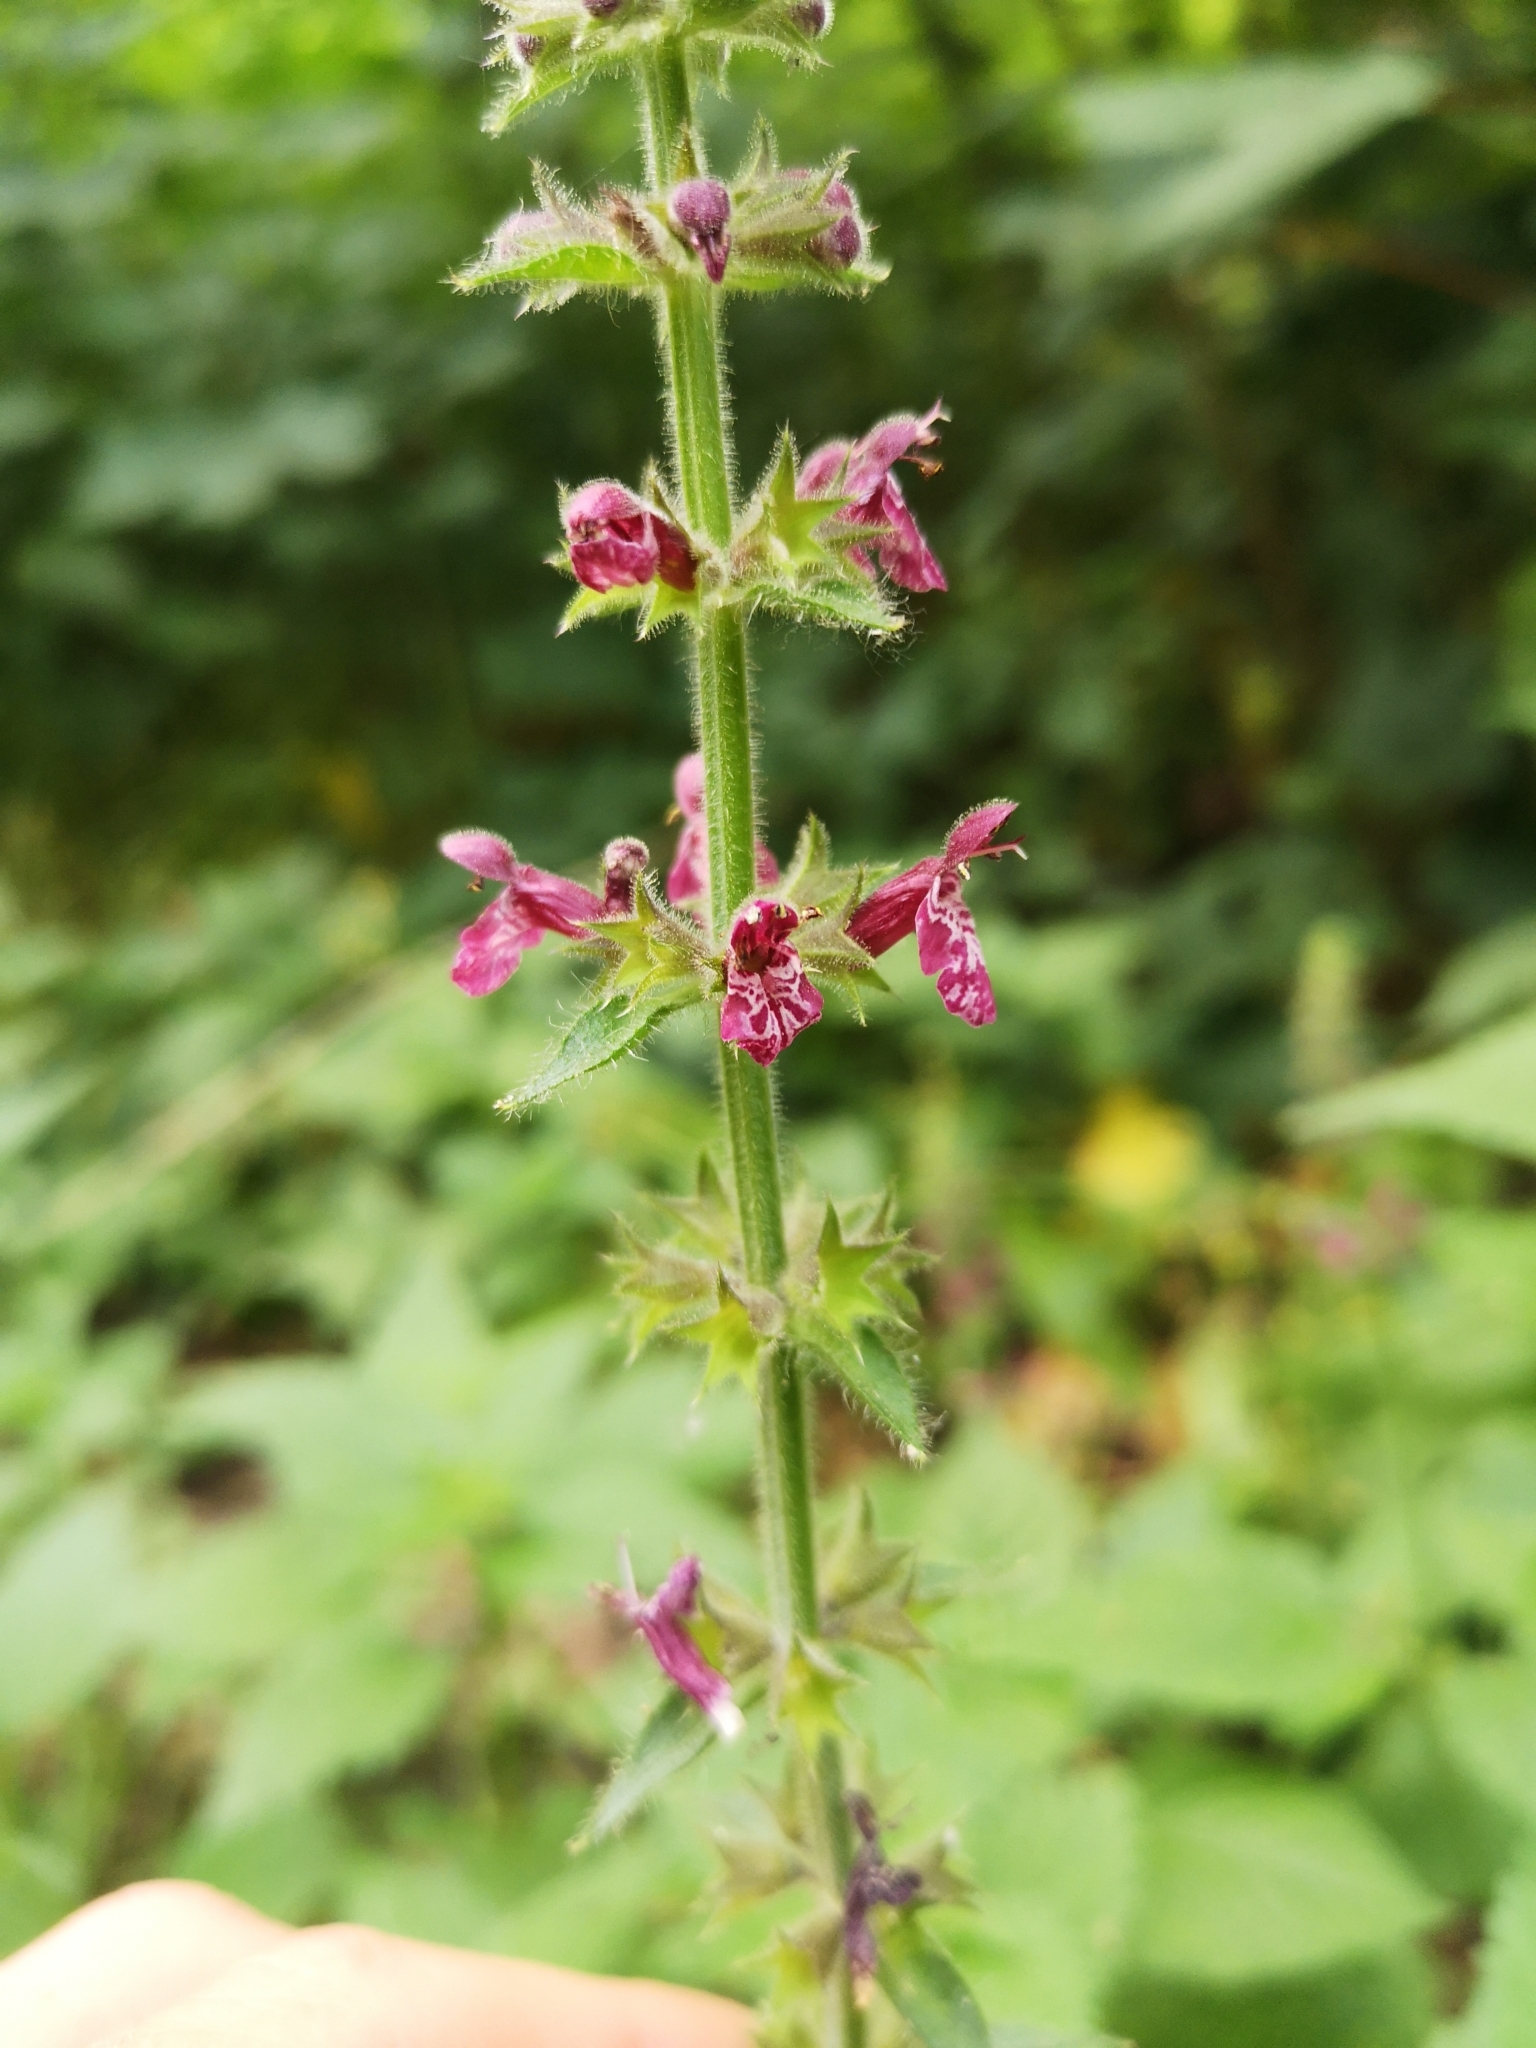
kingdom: Plantae
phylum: Tracheophyta
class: Magnoliopsida
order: Lamiales
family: Lamiaceae
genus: Stachys
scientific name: Stachys sylvatica
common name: Hedge woundwort
